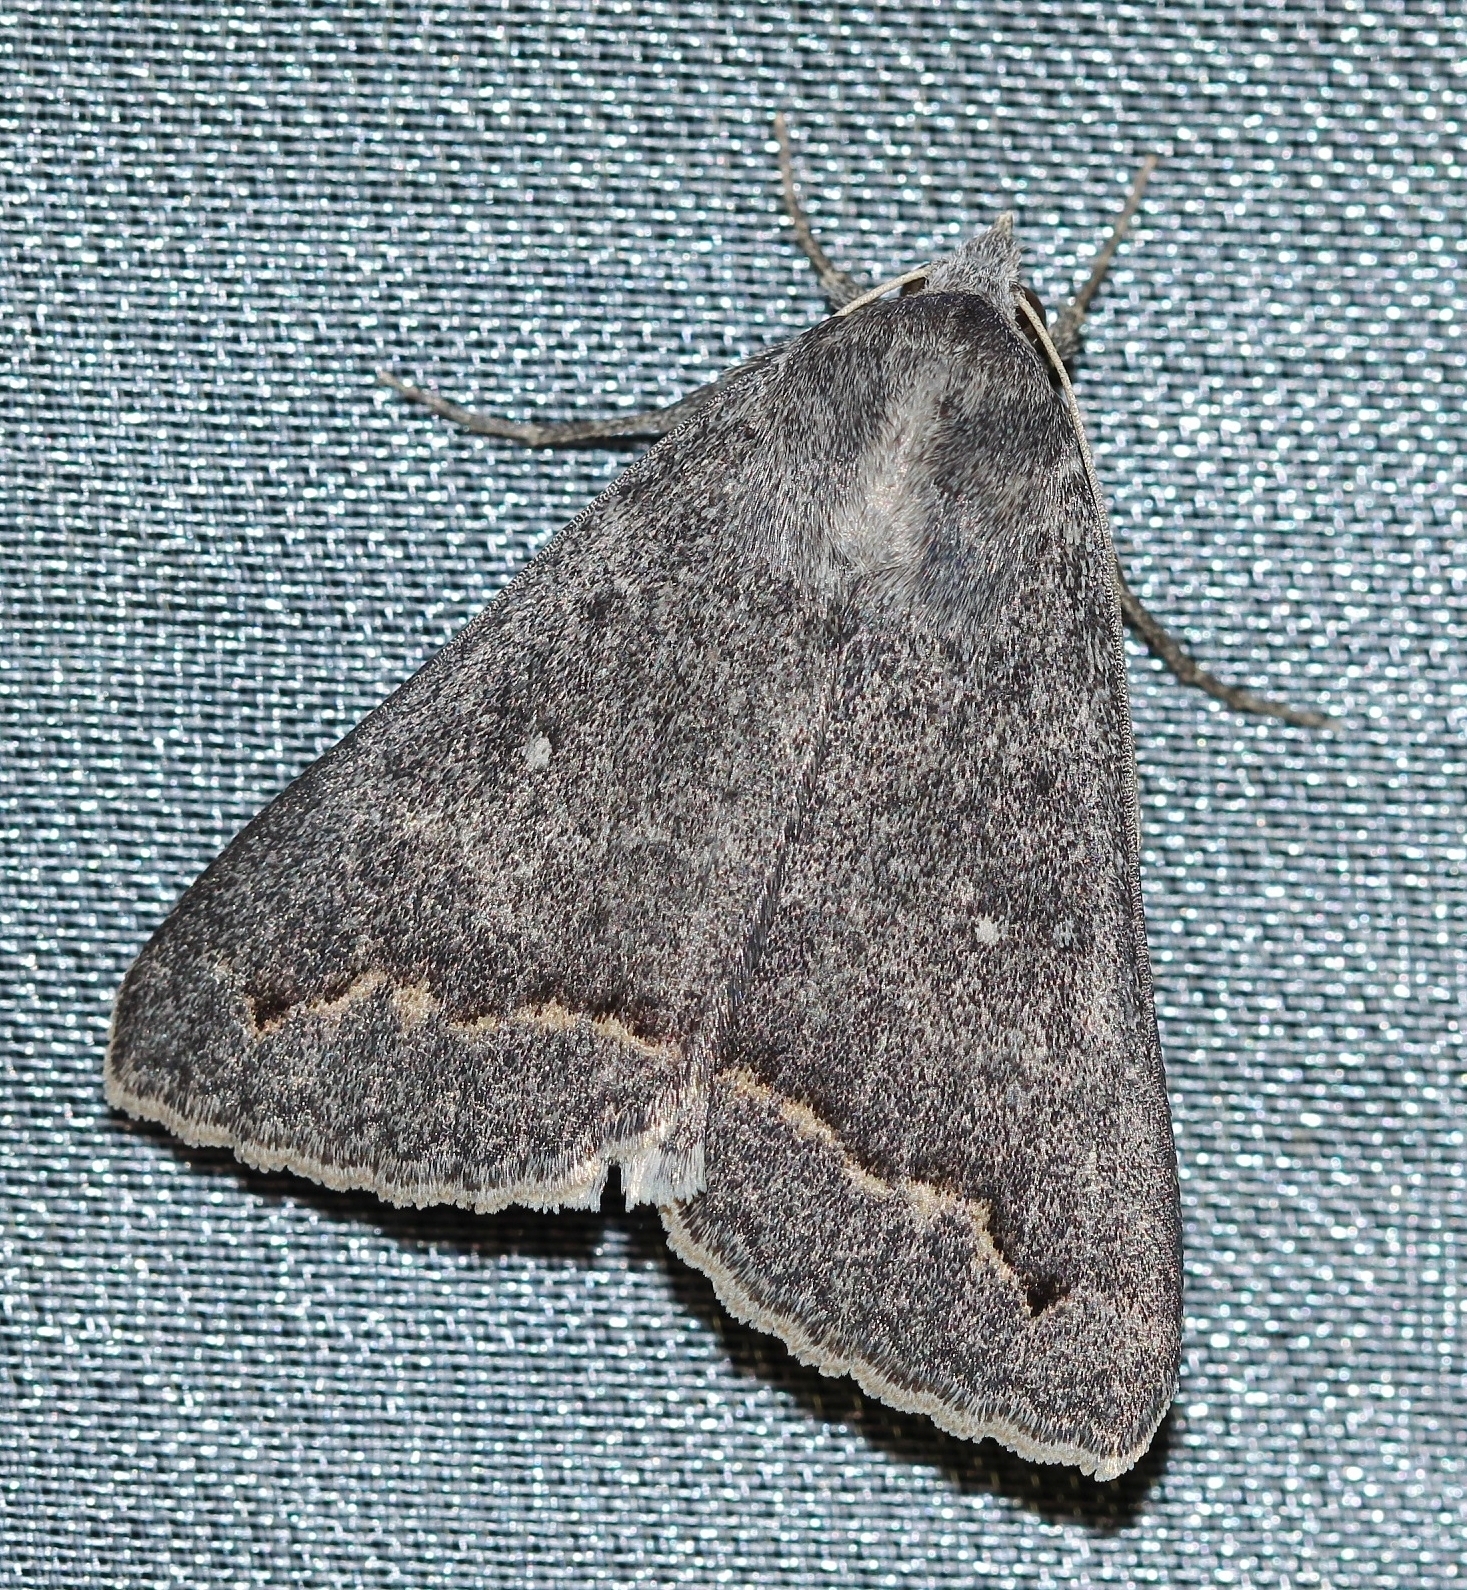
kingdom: Animalia
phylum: Arthropoda
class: Insecta
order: Lepidoptera
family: Erebidae
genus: Clytie
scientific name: Clytie gracilis
